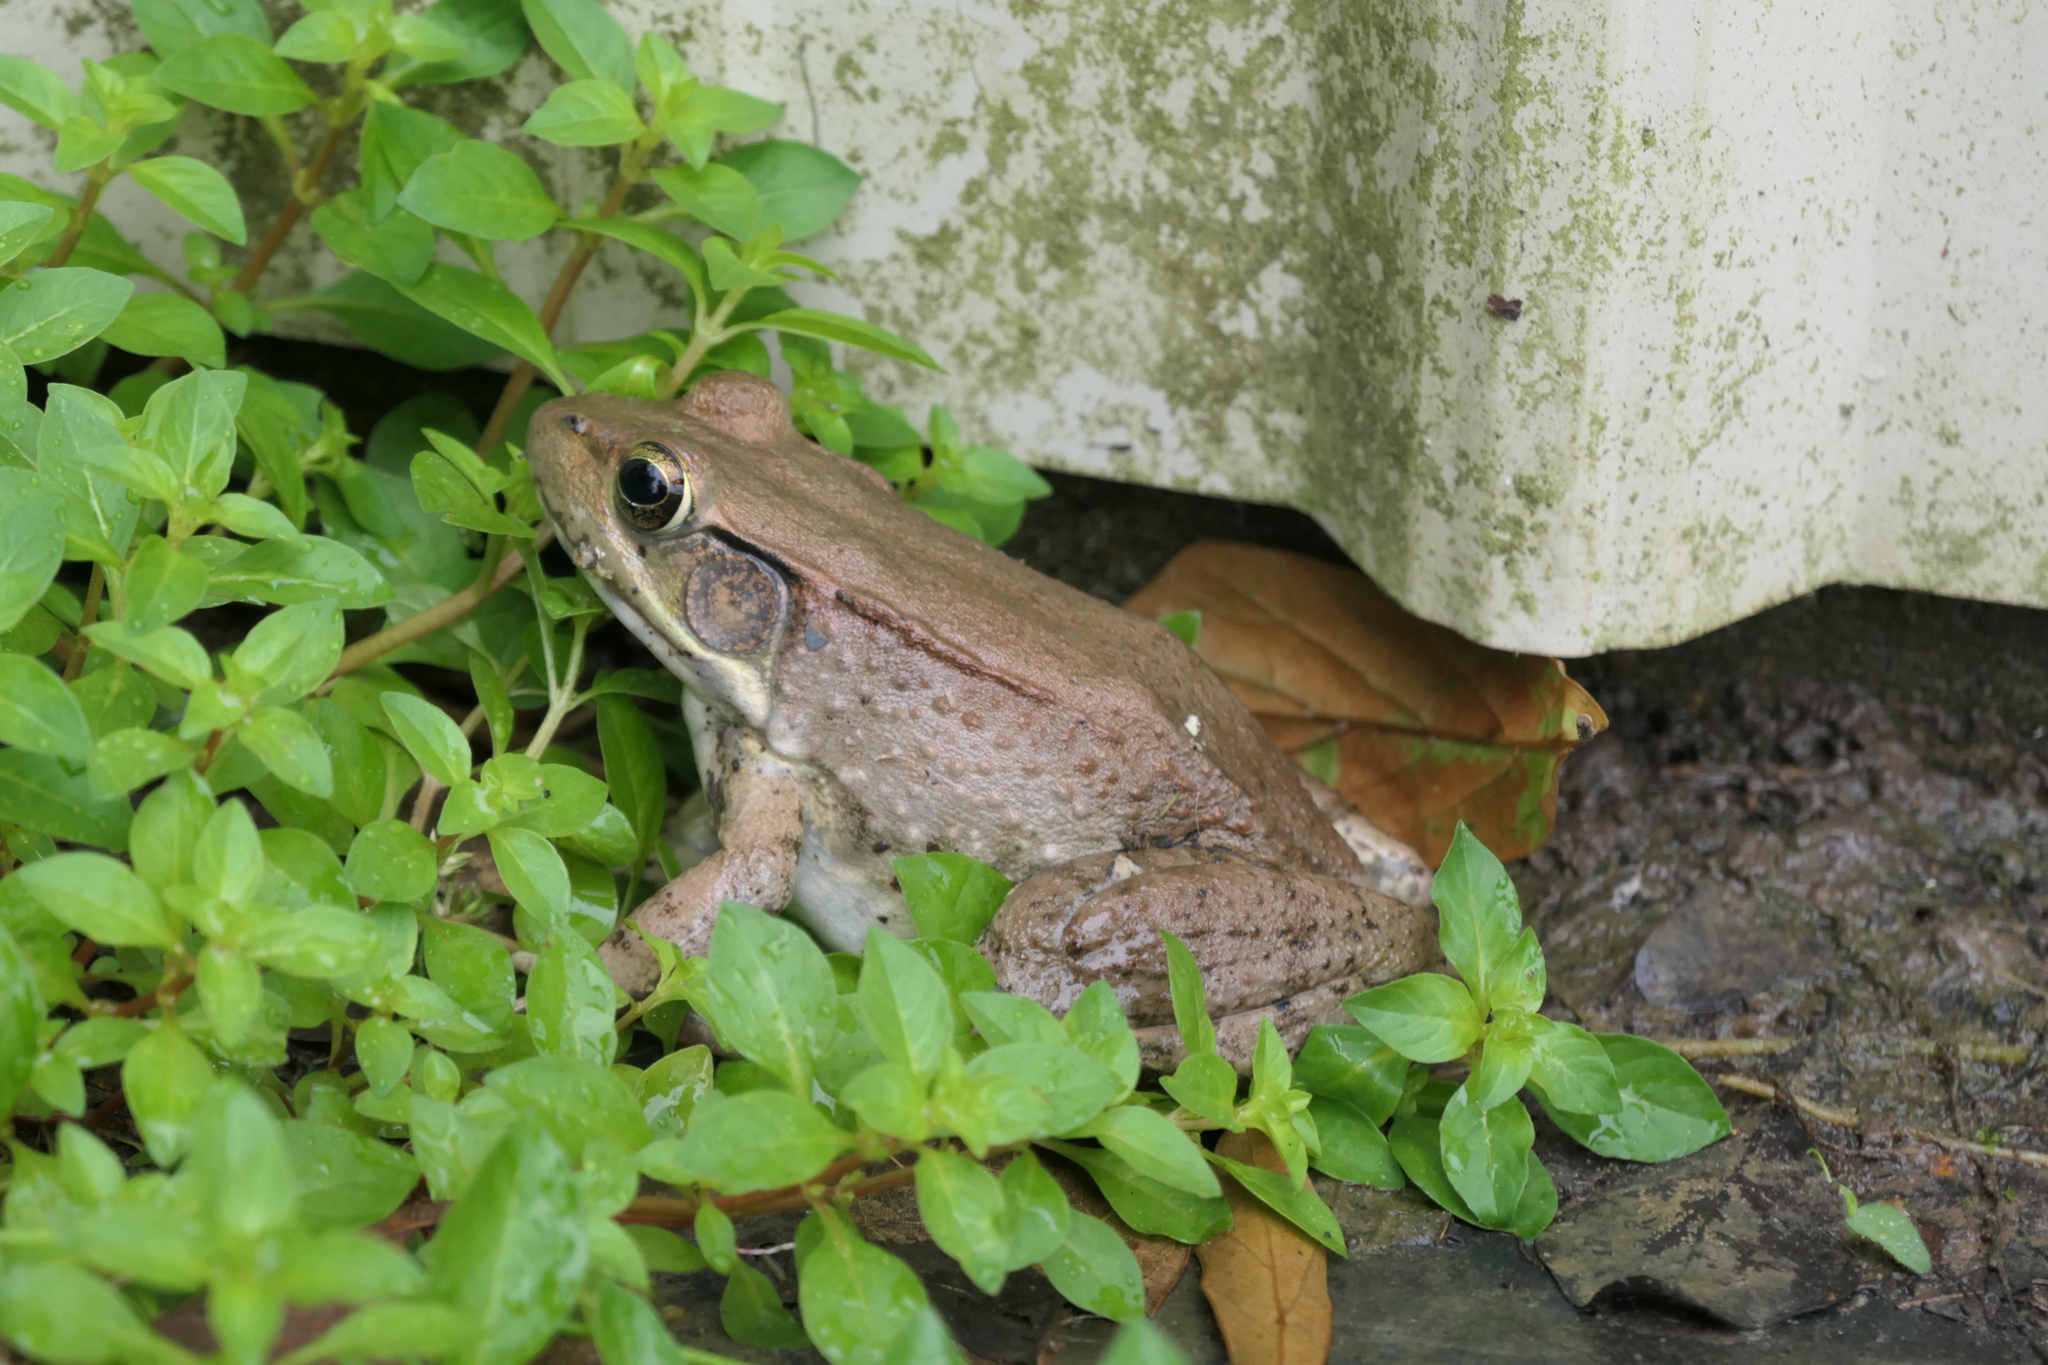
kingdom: Animalia
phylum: Chordata
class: Amphibia
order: Anura
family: Ranidae
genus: Lithobates
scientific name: Lithobates clamitans
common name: Green frog
